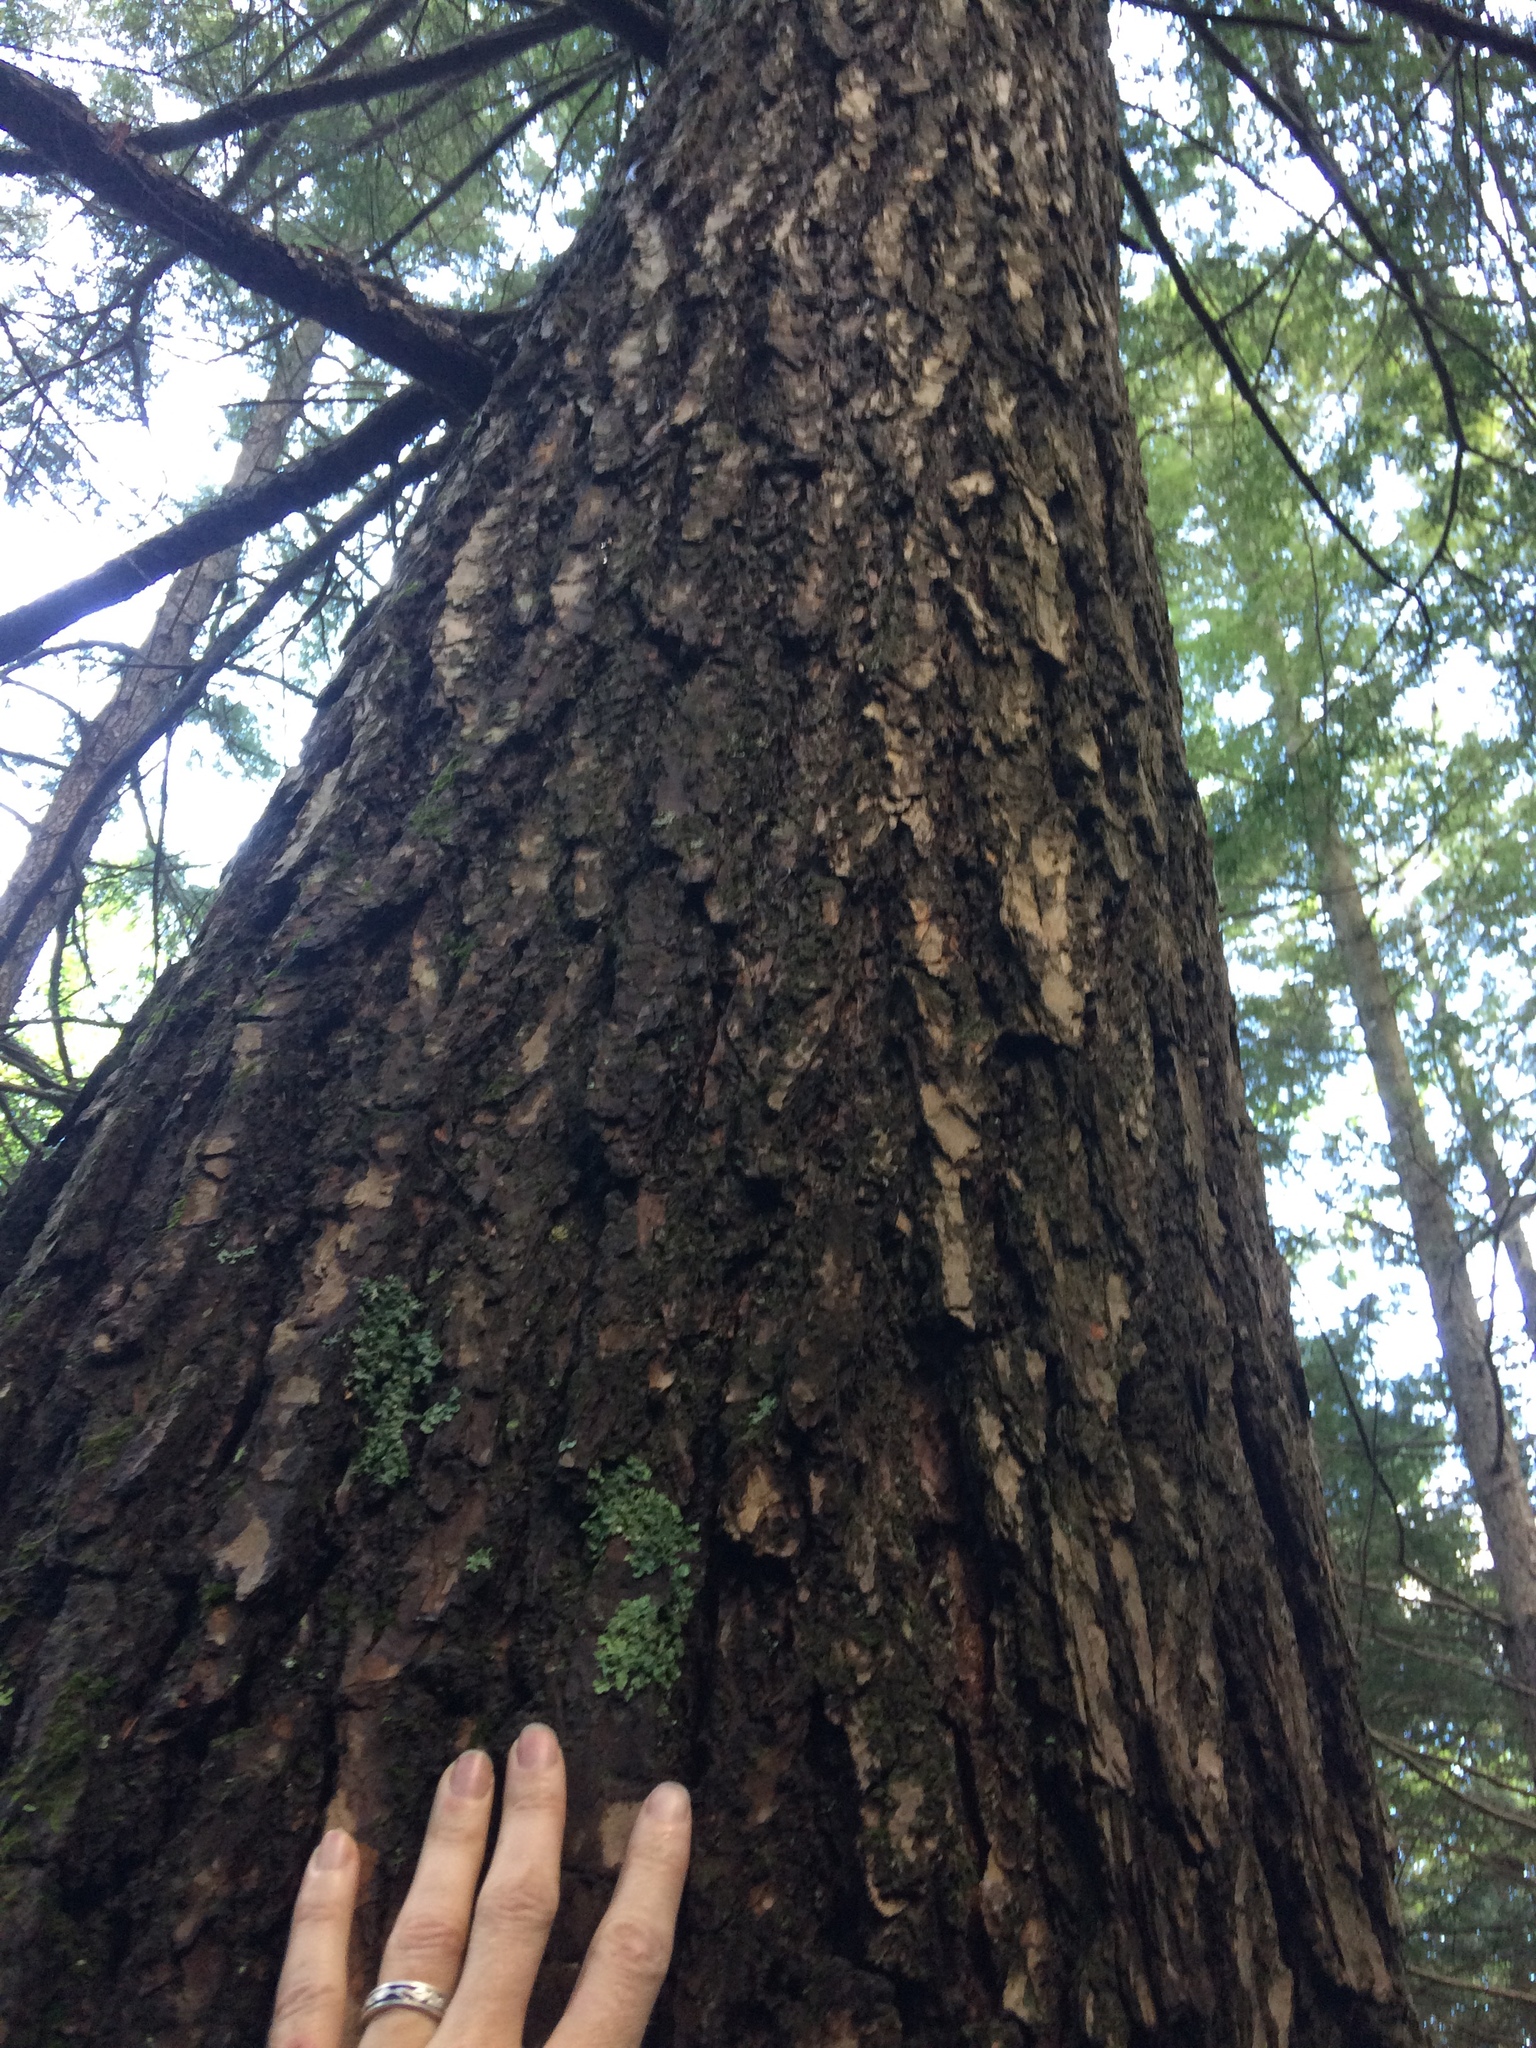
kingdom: Plantae
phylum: Tracheophyta
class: Pinopsida
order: Pinales
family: Pinaceae
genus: Tsuga
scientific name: Tsuga canadensis
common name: Eastern hemlock
